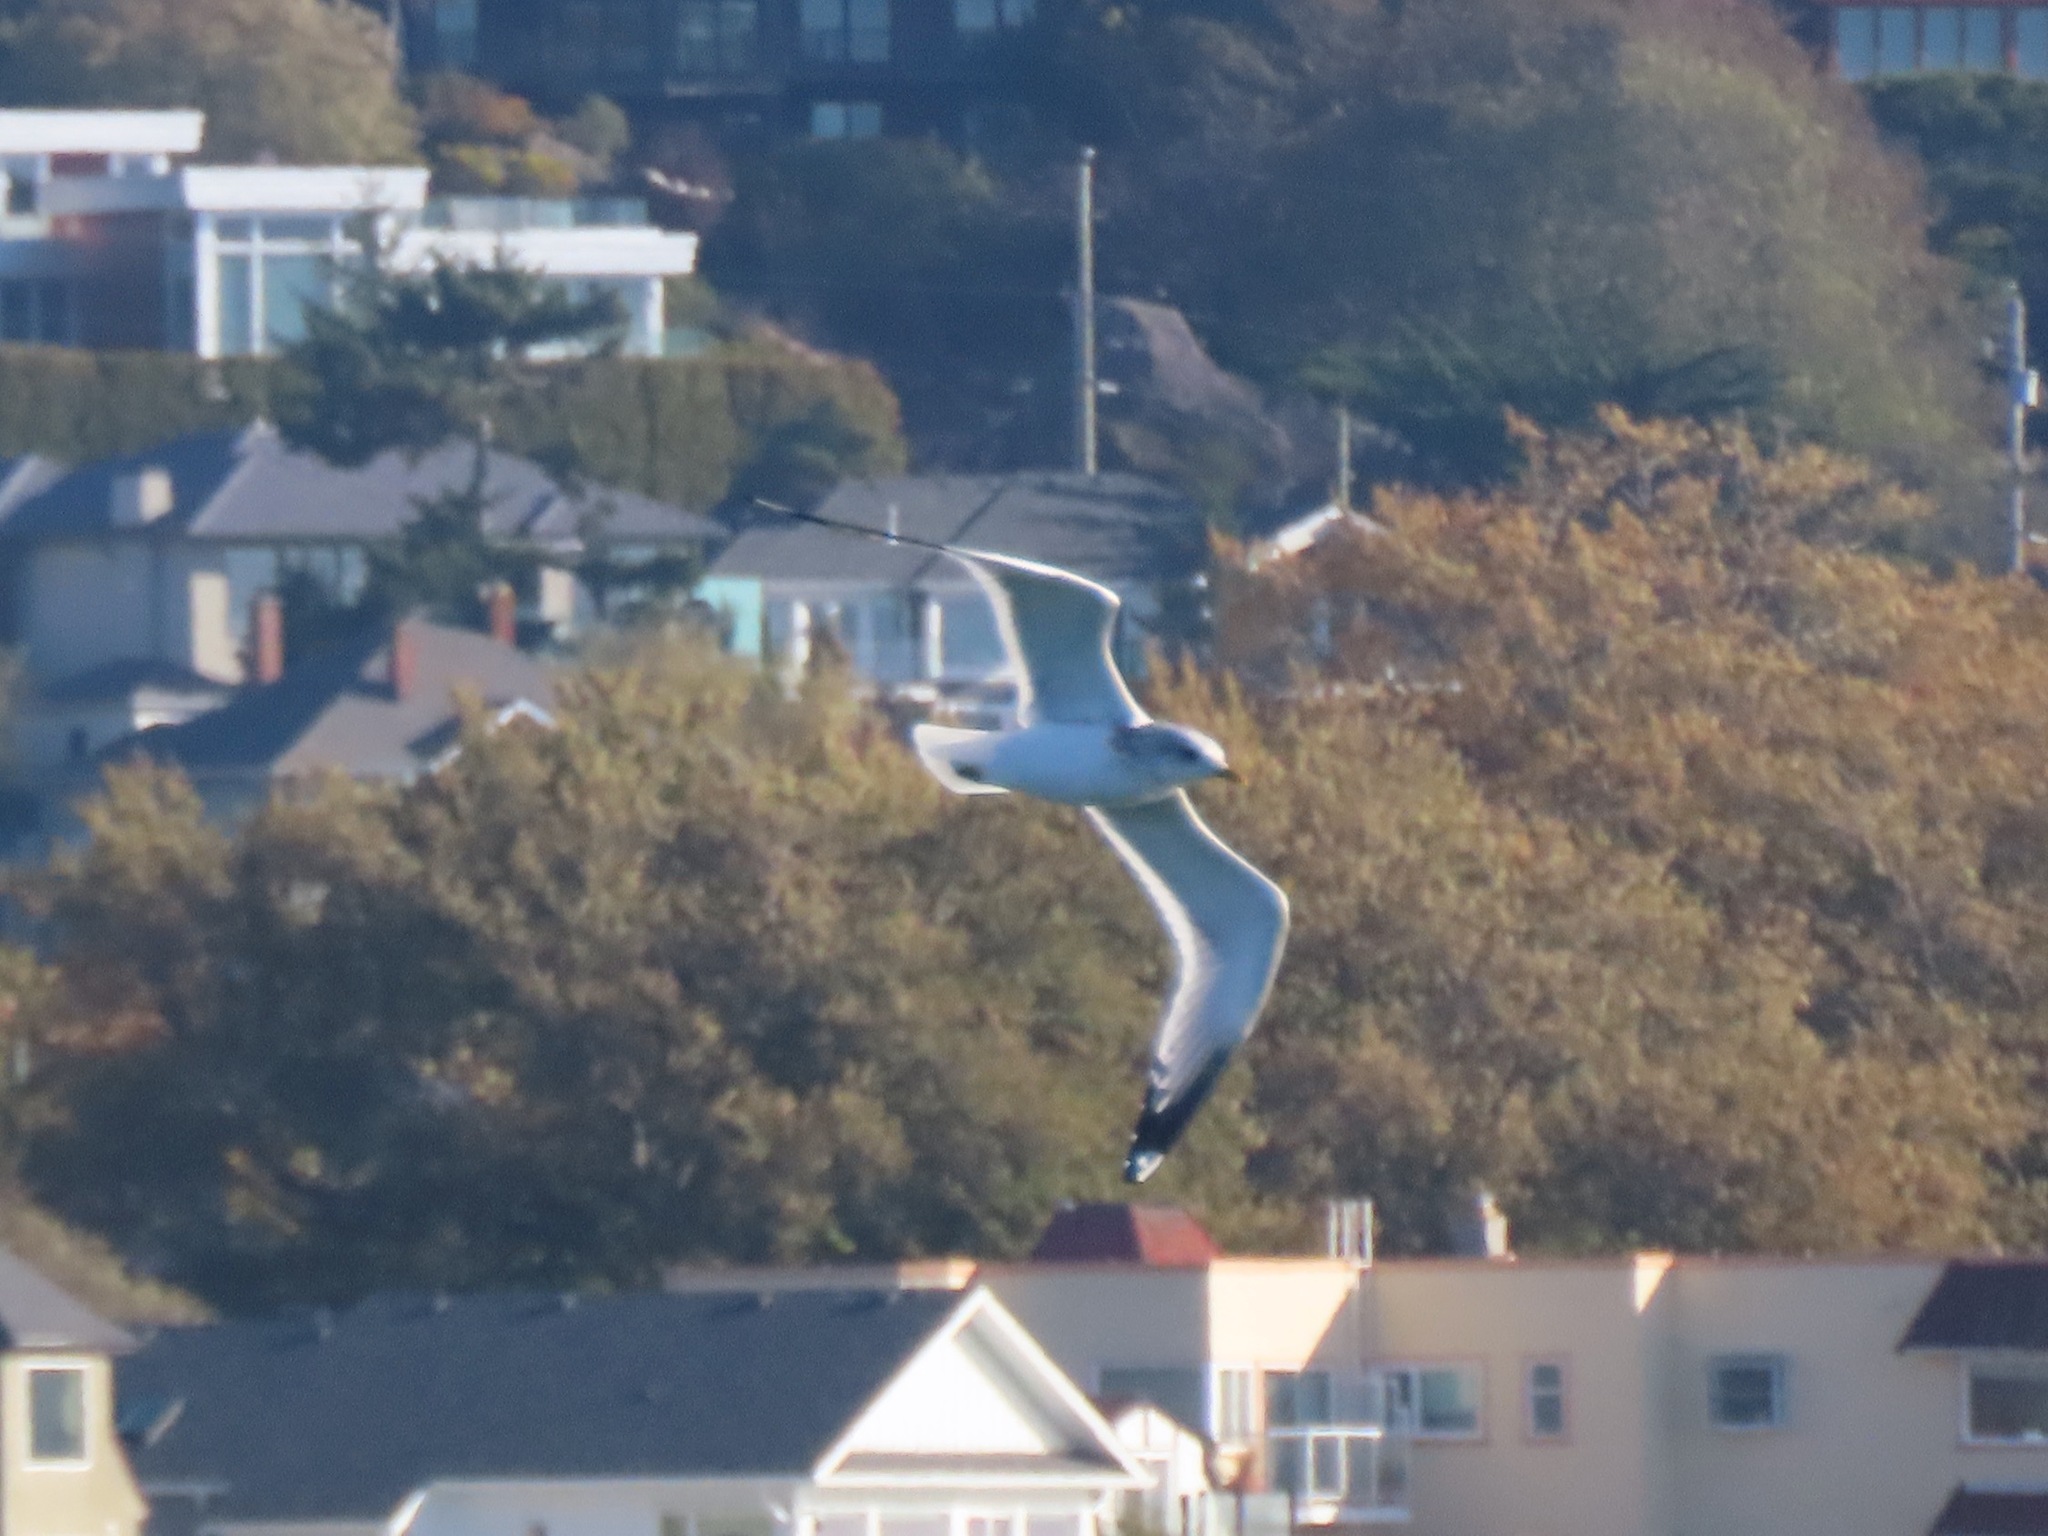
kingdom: Animalia
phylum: Chordata
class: Aves
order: Charadriiformes
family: Laridae
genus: Larus
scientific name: Larus brachyrhynchus
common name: Short-billed gull
